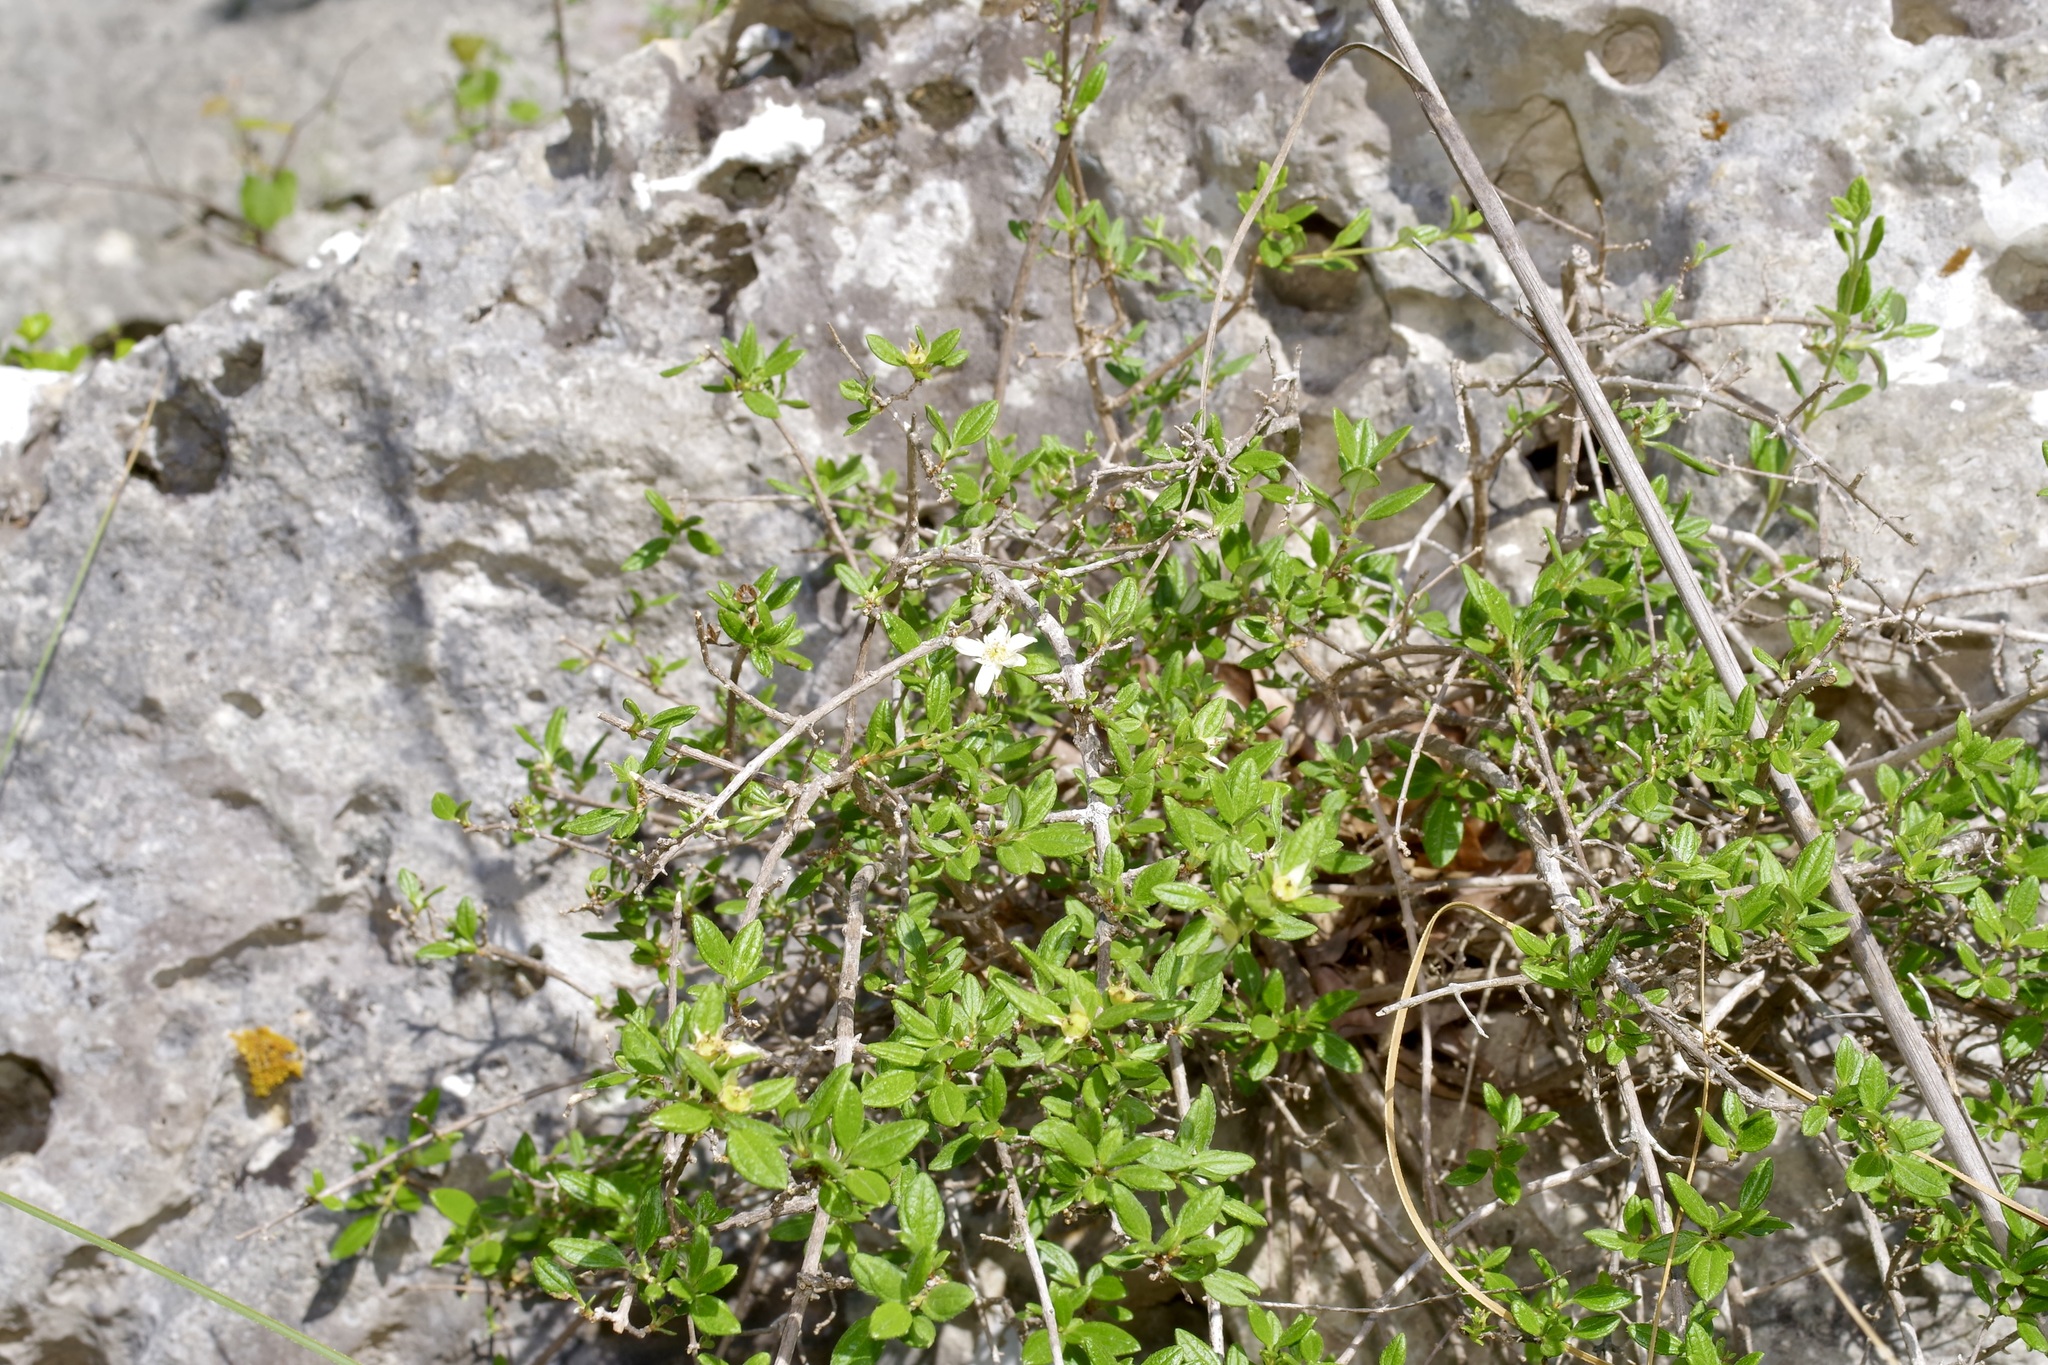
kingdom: Plantae
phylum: Tracheophyta
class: Magnoliopsida
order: Cornales
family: Hydrangeaceae
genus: Philadelphus
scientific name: Philadelphus texensis
